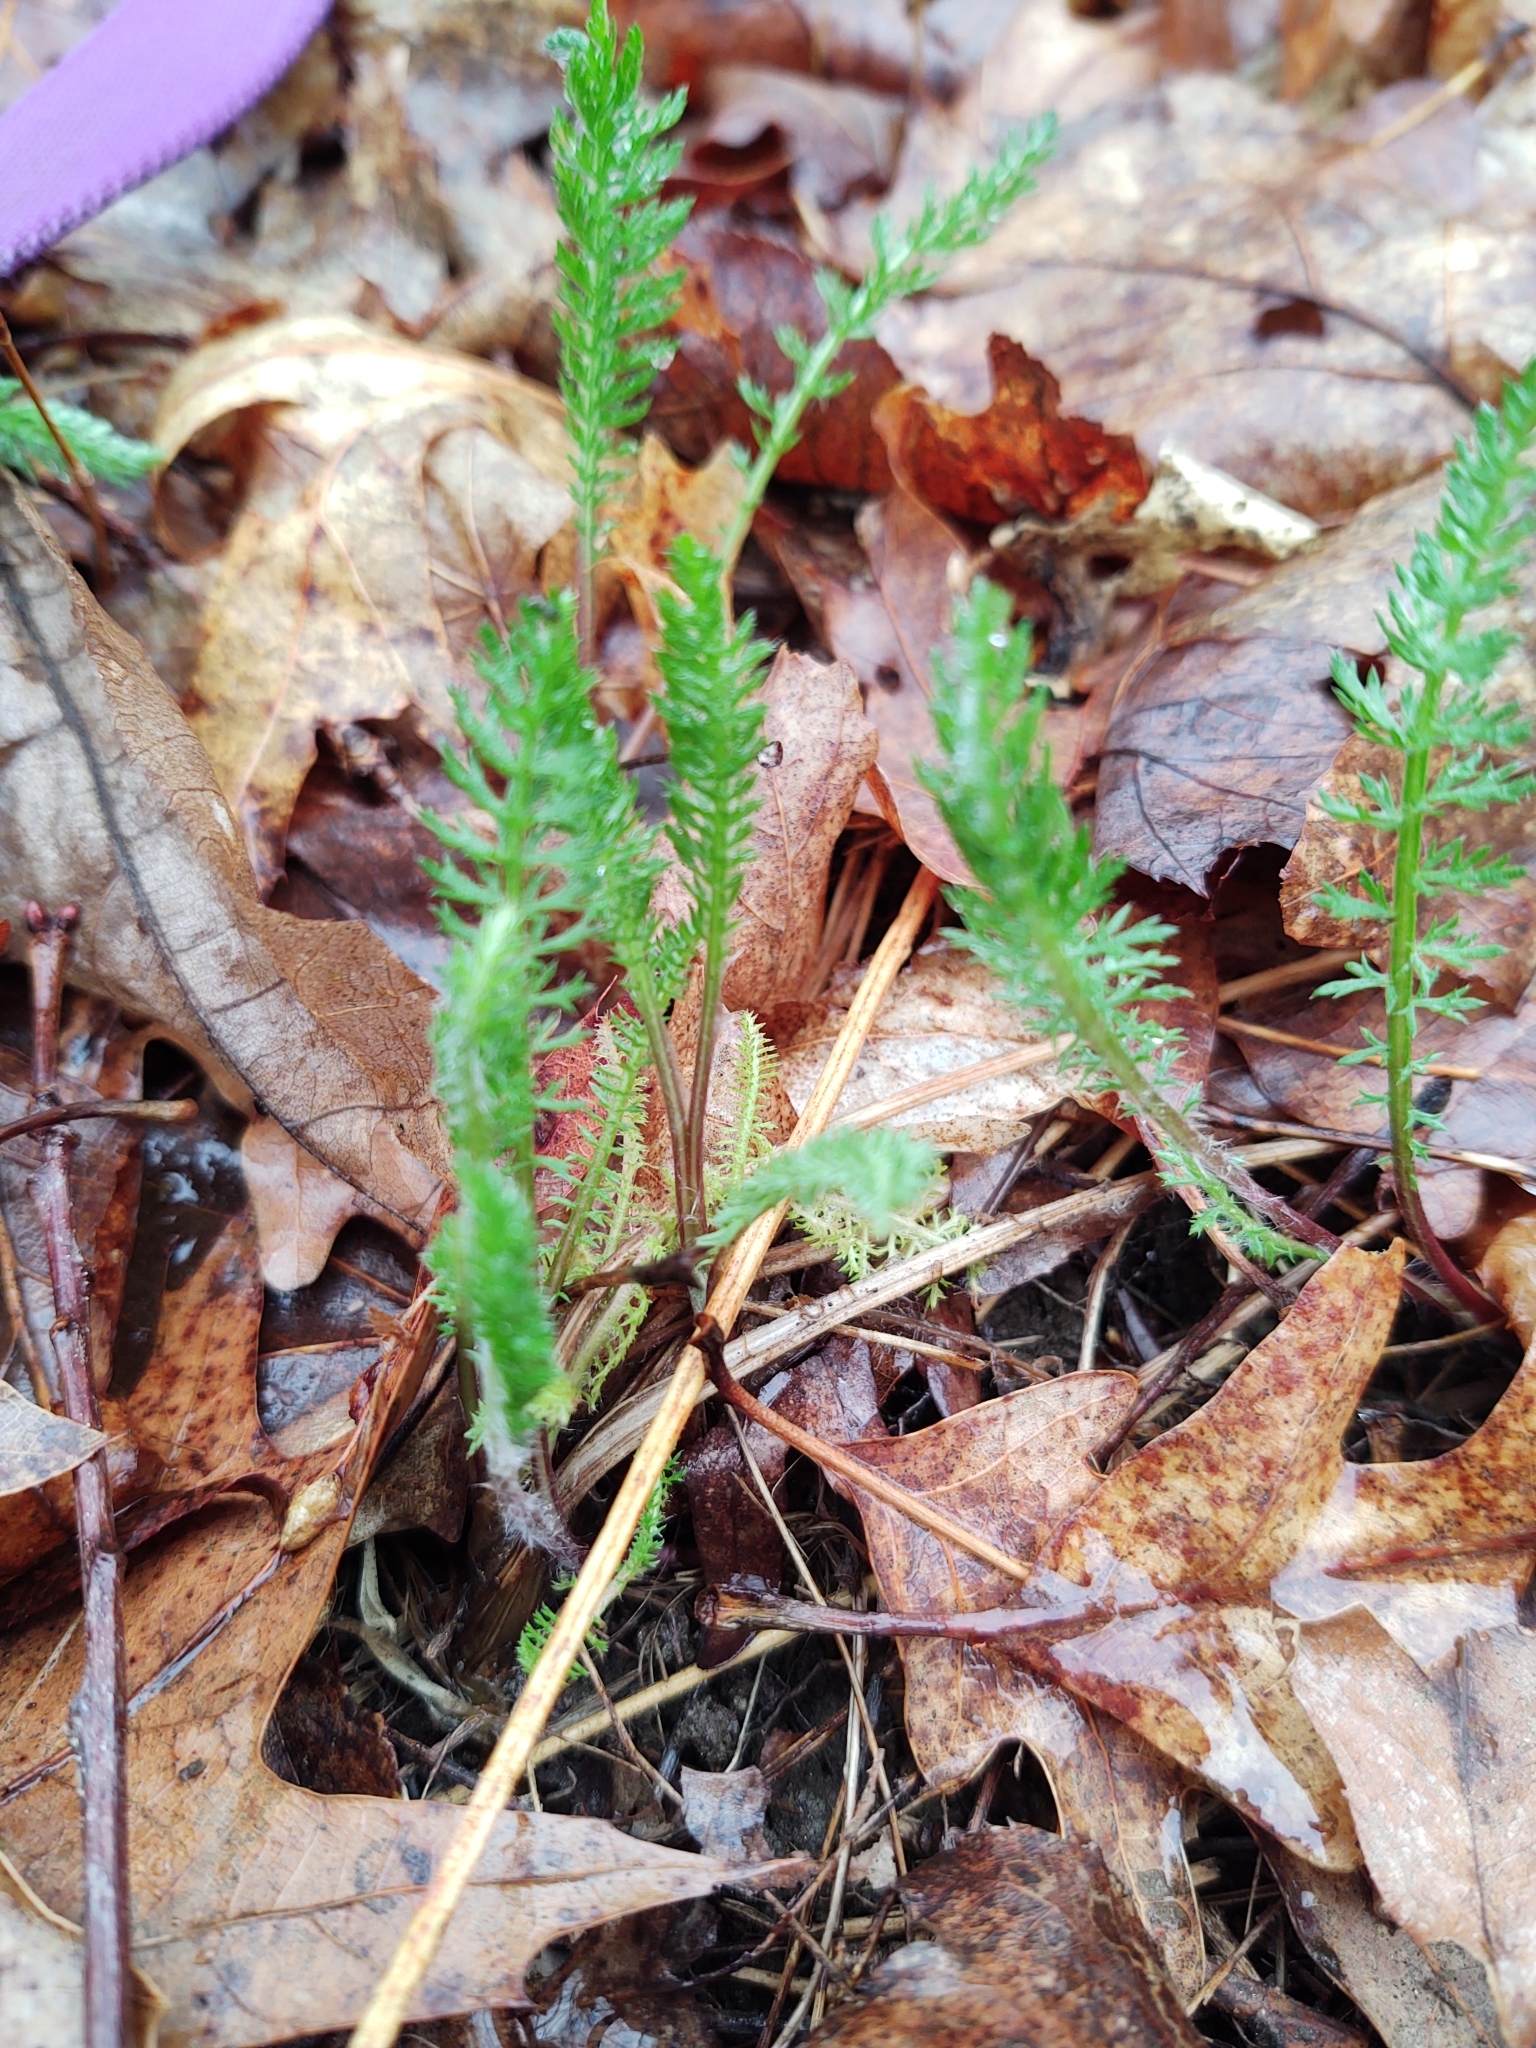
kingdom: Plantae
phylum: Tracheophyta
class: Magnoliopsida
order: Asterales
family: Asteraceae
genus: Achillea
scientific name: Achillea millefolium
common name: Yarrow
